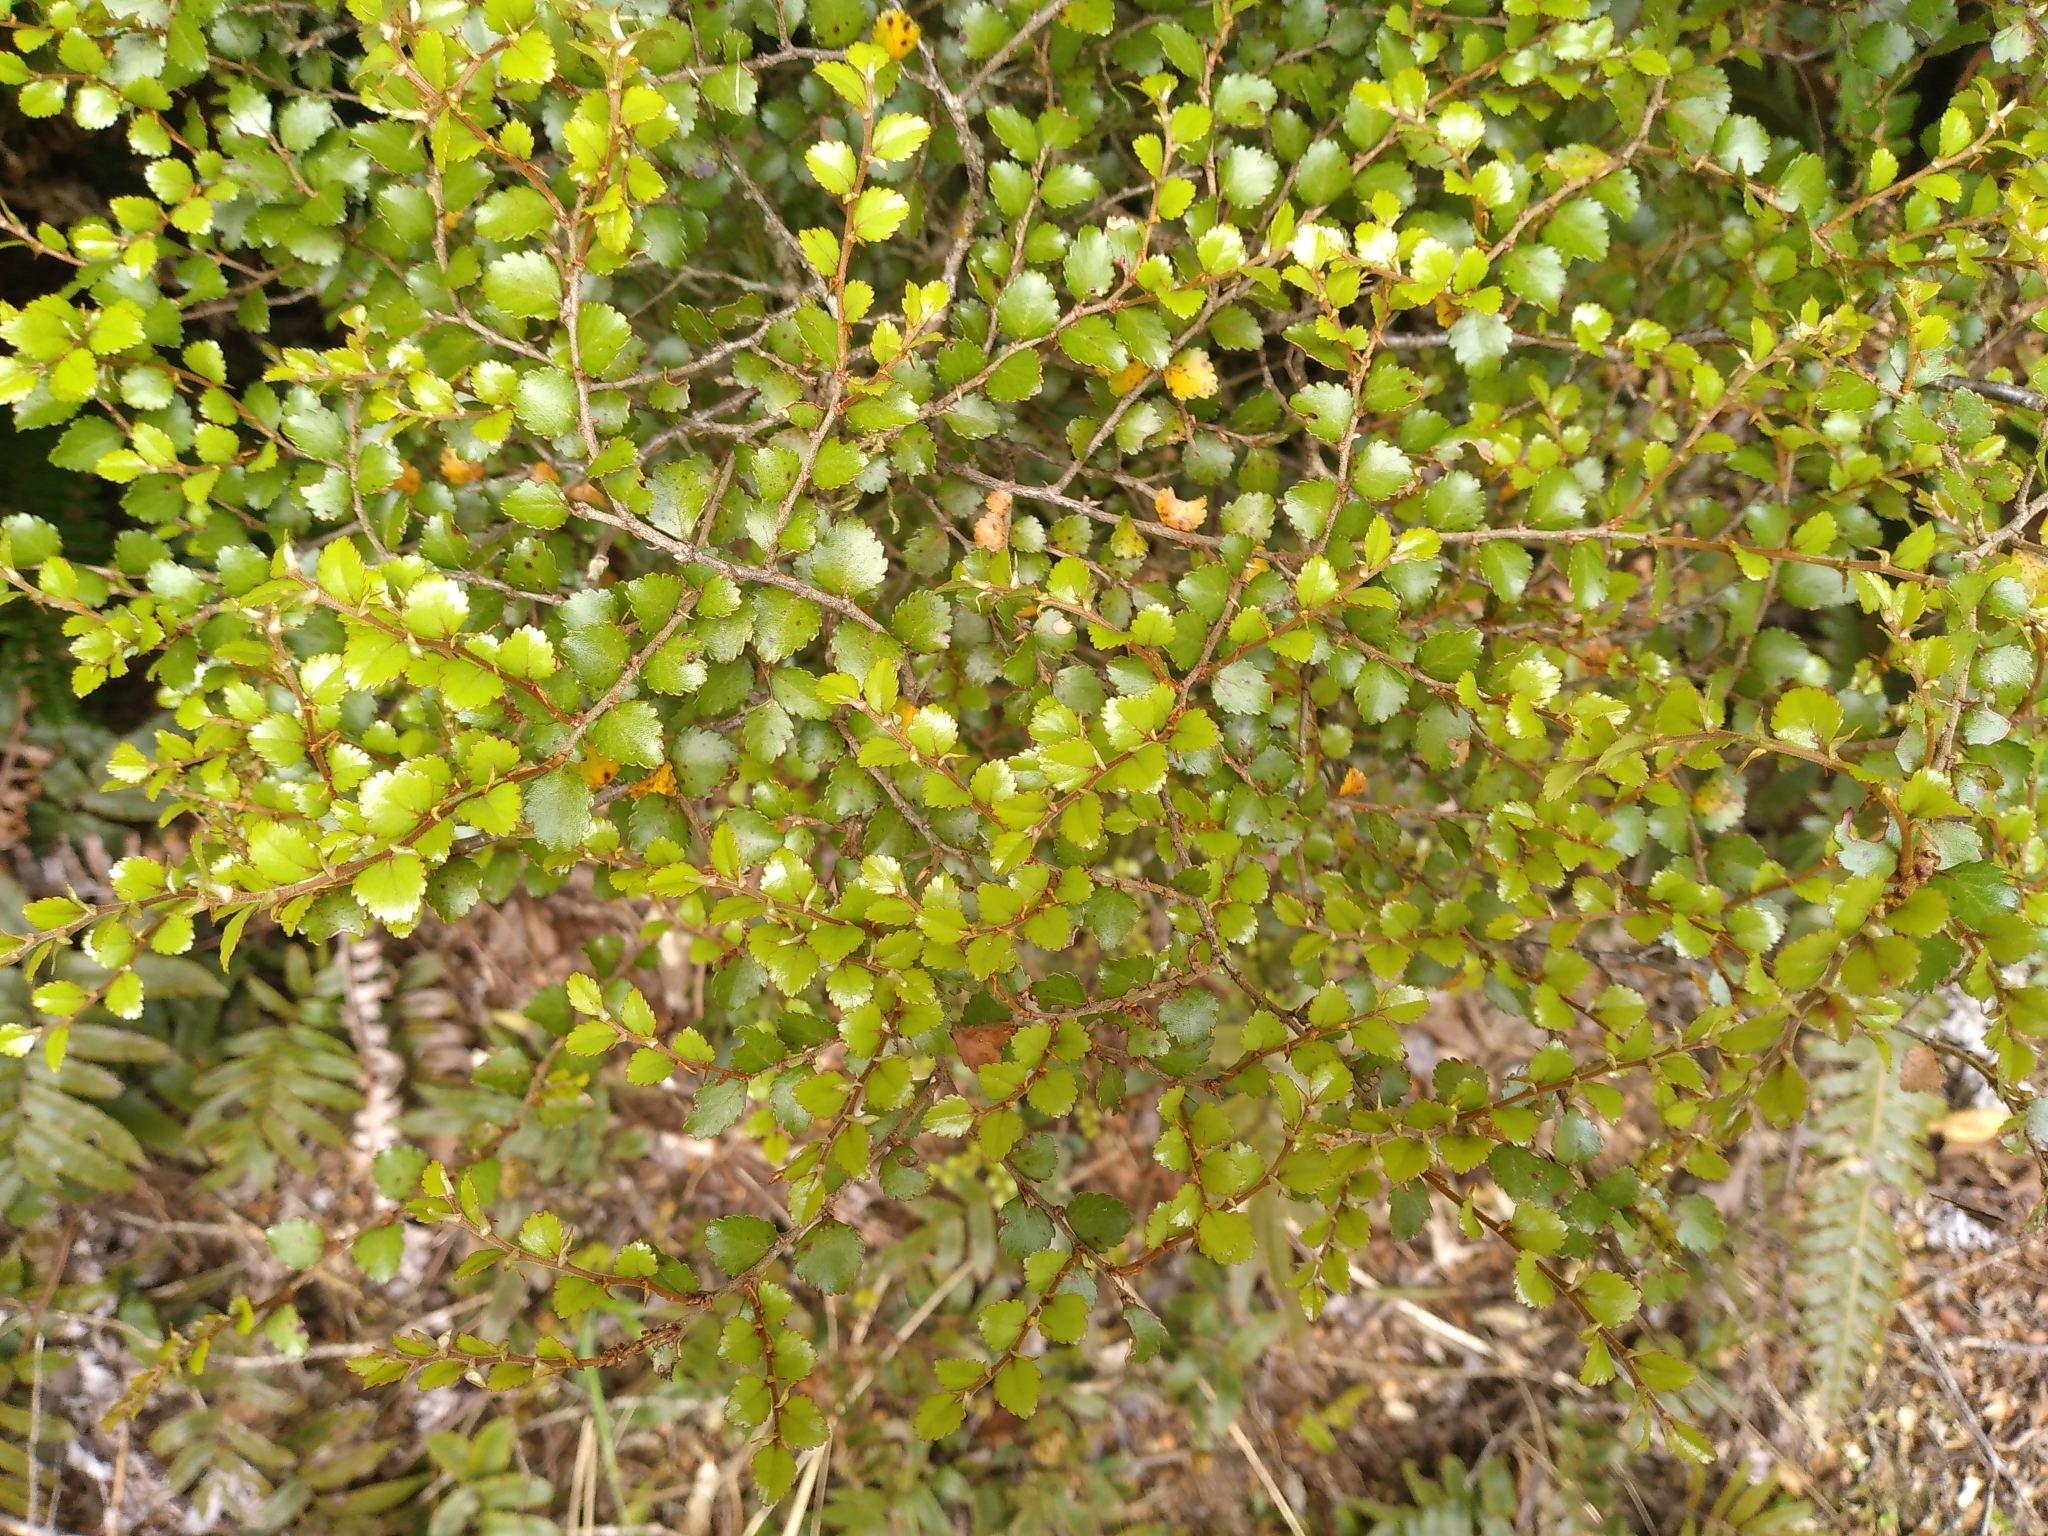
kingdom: Plantae
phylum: Tracheophyta
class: Magnoliopsida
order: Fagales
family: Nothofagaceae
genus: Nothofagus
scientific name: Nothofagus menziesii
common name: Silver beech
